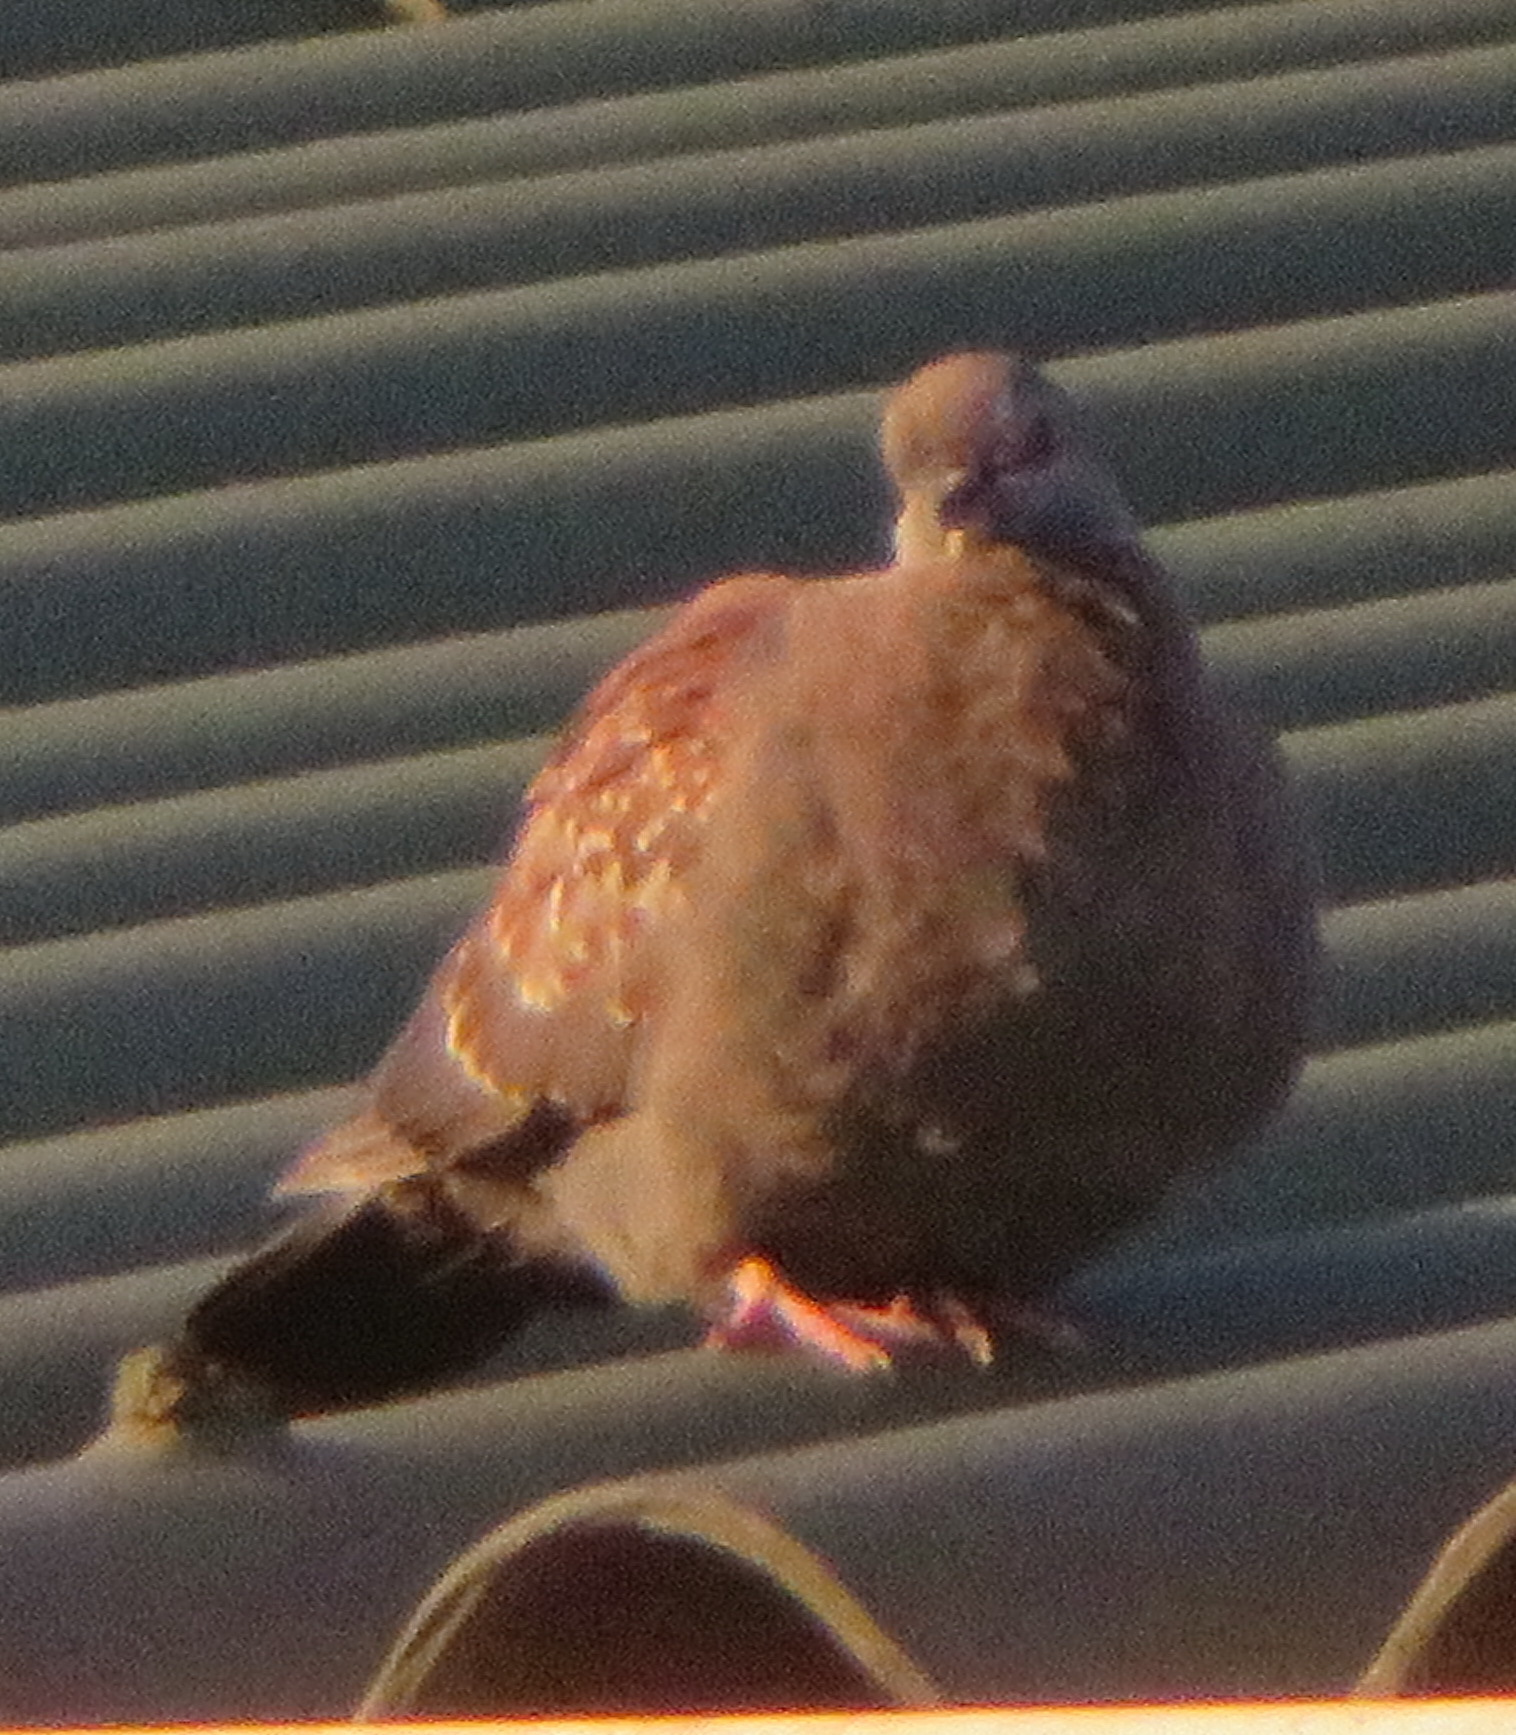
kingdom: Animalia
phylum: Chordata
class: Aves
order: Columbiformes
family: Columbidae
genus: Columba
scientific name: Columba guinea
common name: Speckled pigeon
